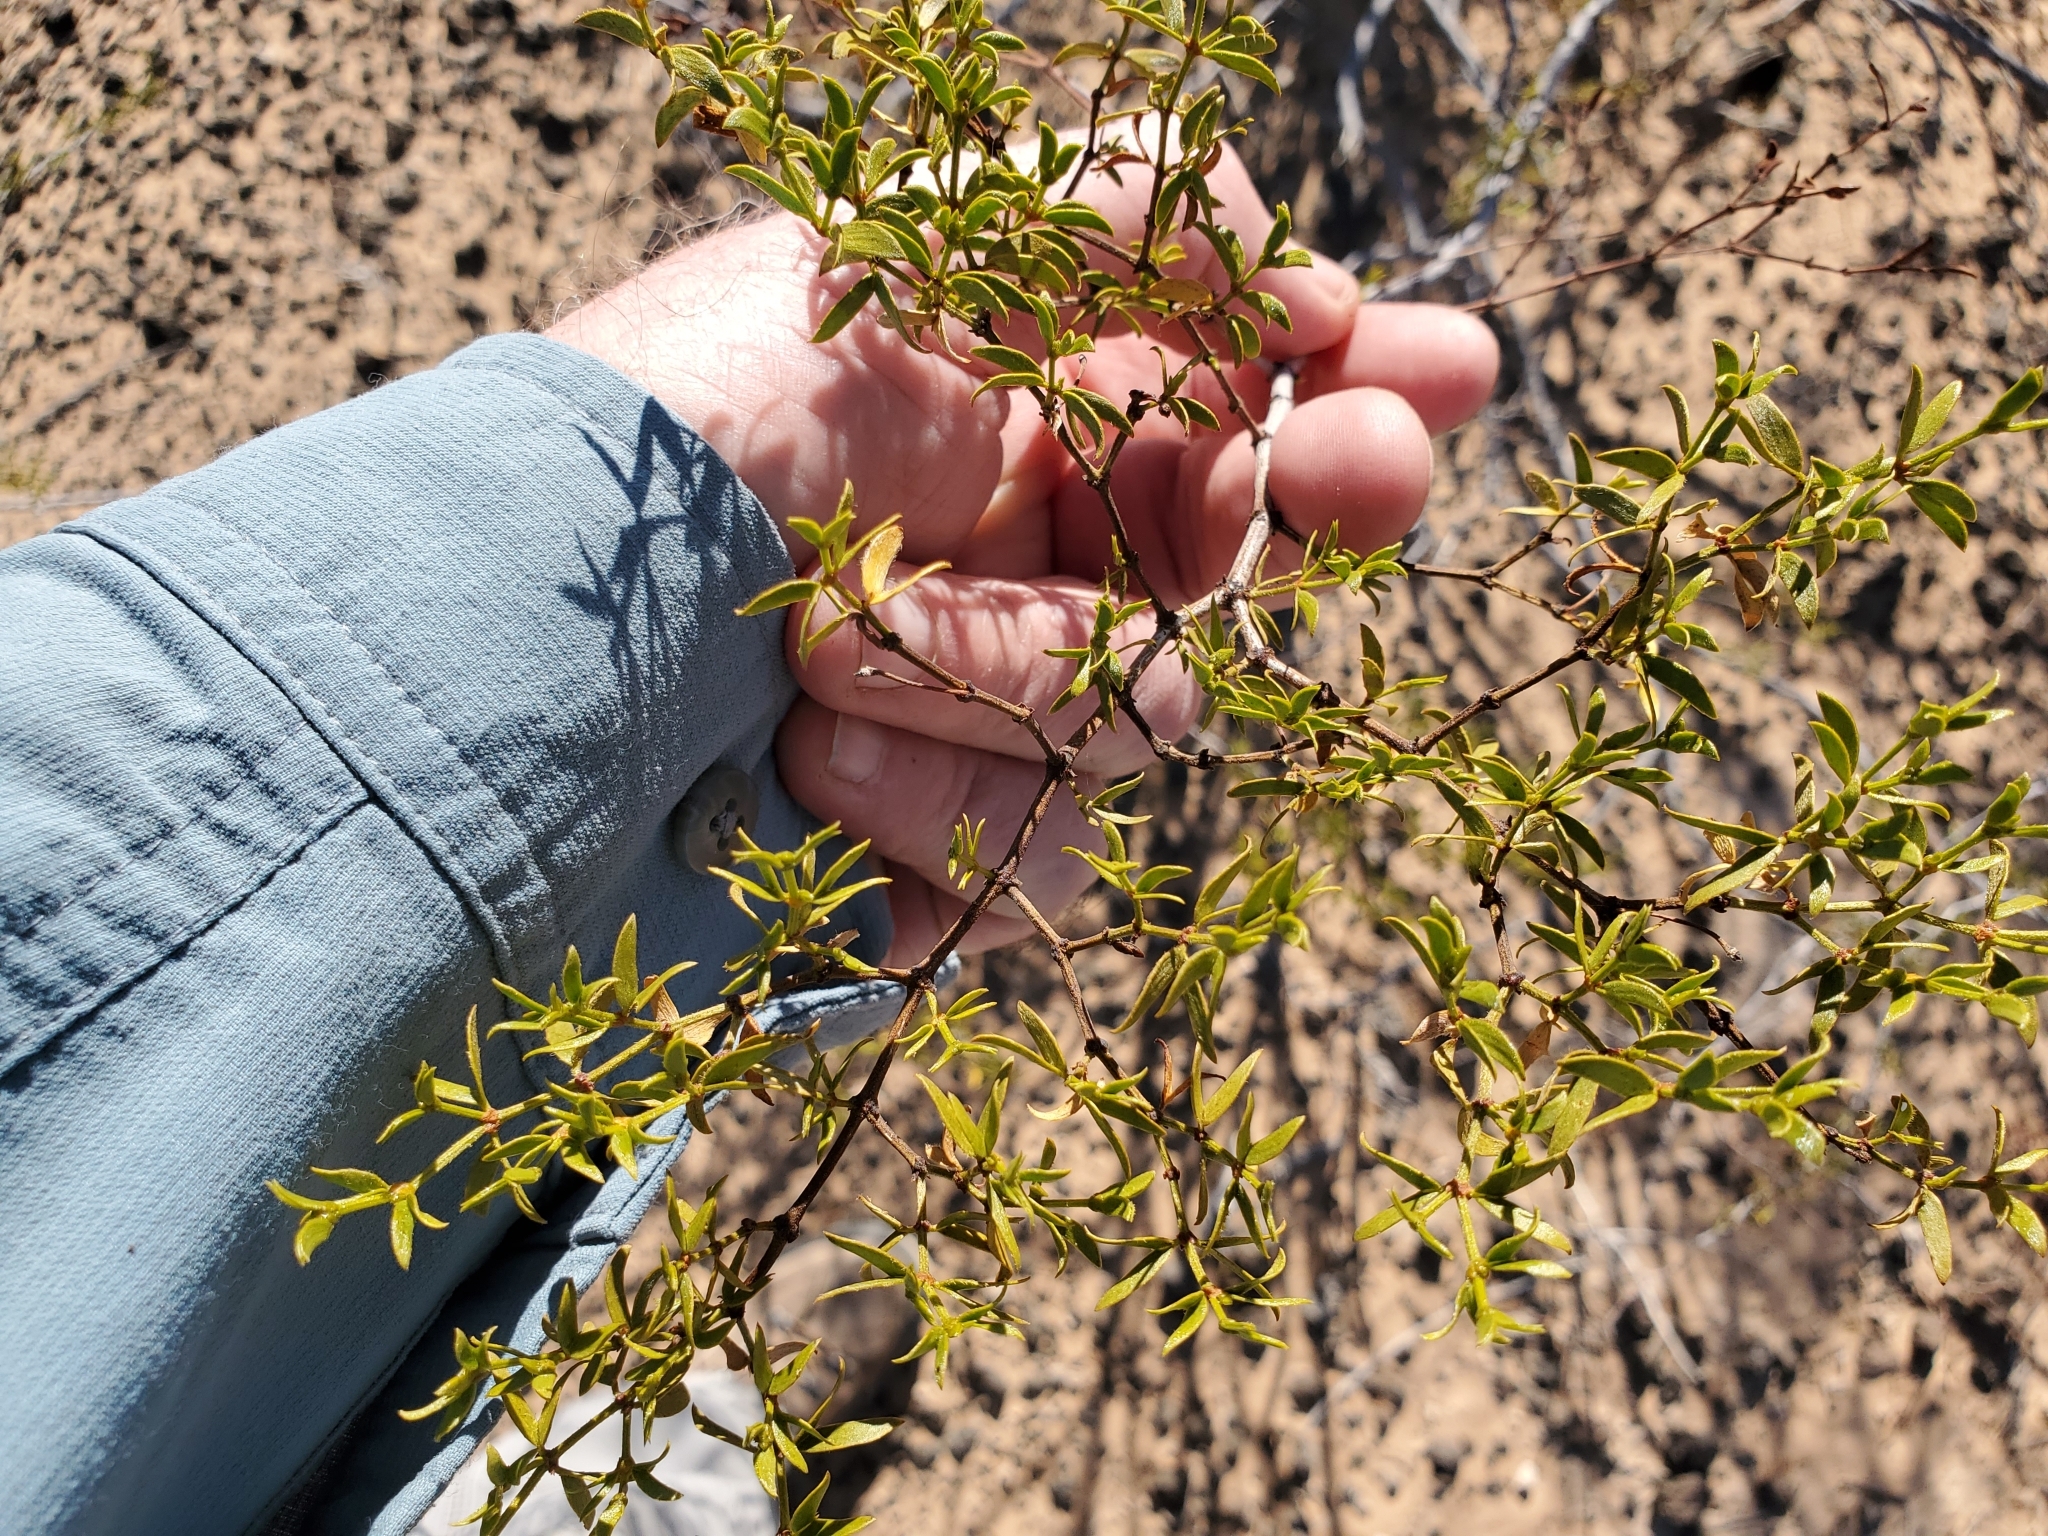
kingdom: Plantae
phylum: Tracheophyta
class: Magnoliopsida
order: Zygophyllales
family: Zygophyllaceae
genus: Larrea
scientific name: Larrea tridentata
